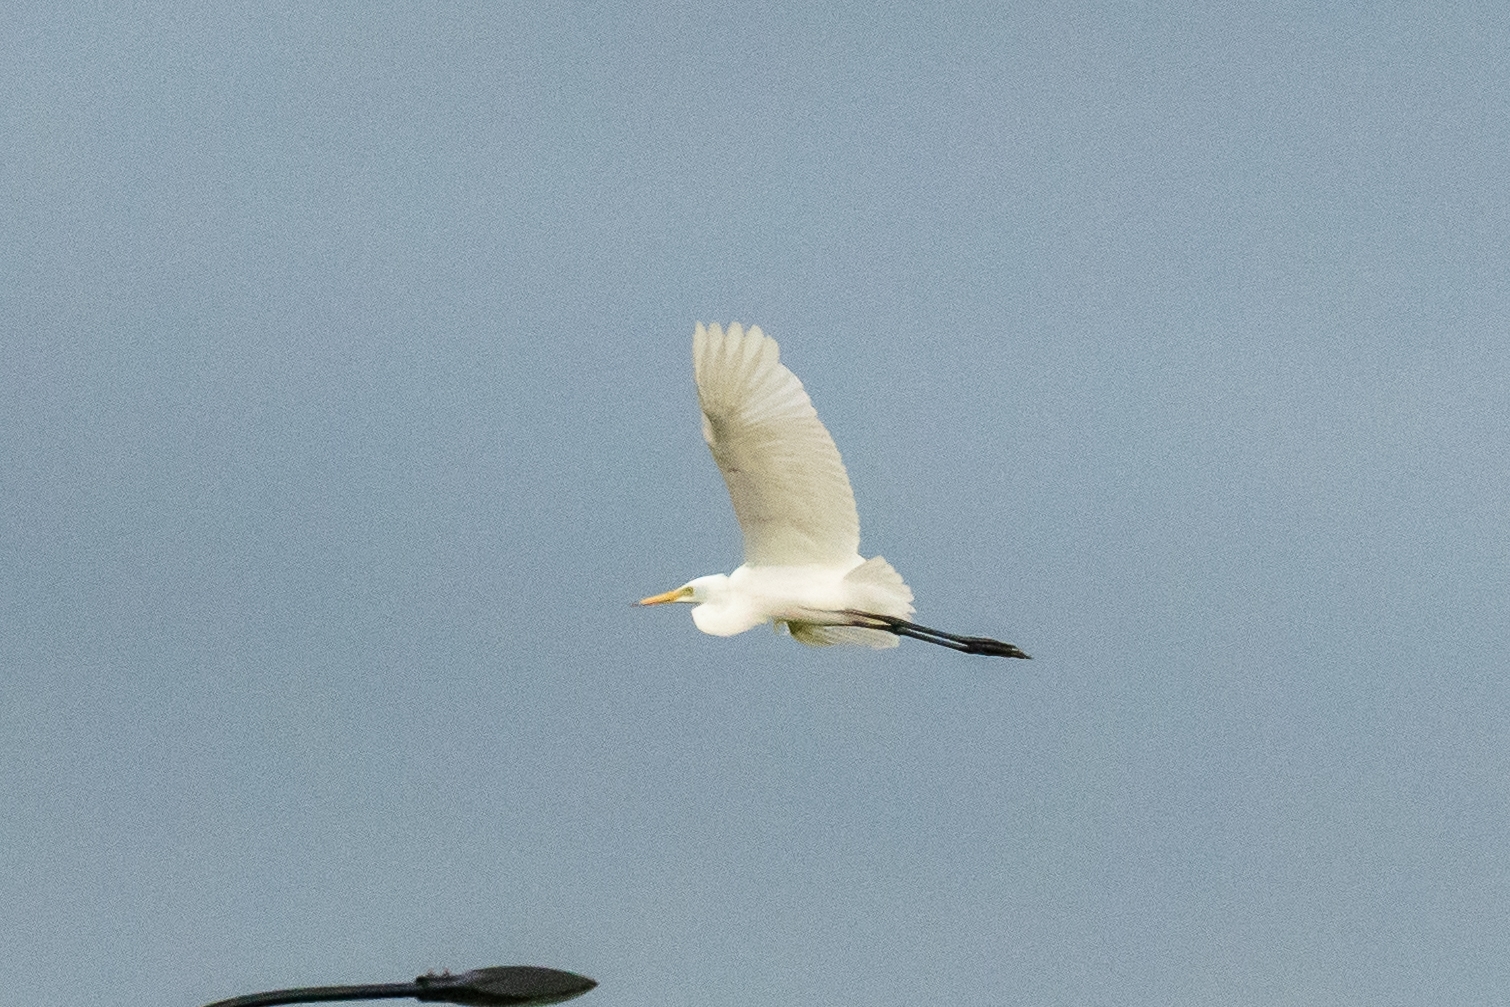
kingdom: Animalia
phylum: Chordata
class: Aves
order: Pelecaniformes
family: Ardeidae
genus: Egretta
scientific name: Egretta intermedia
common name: Intermediate egret
